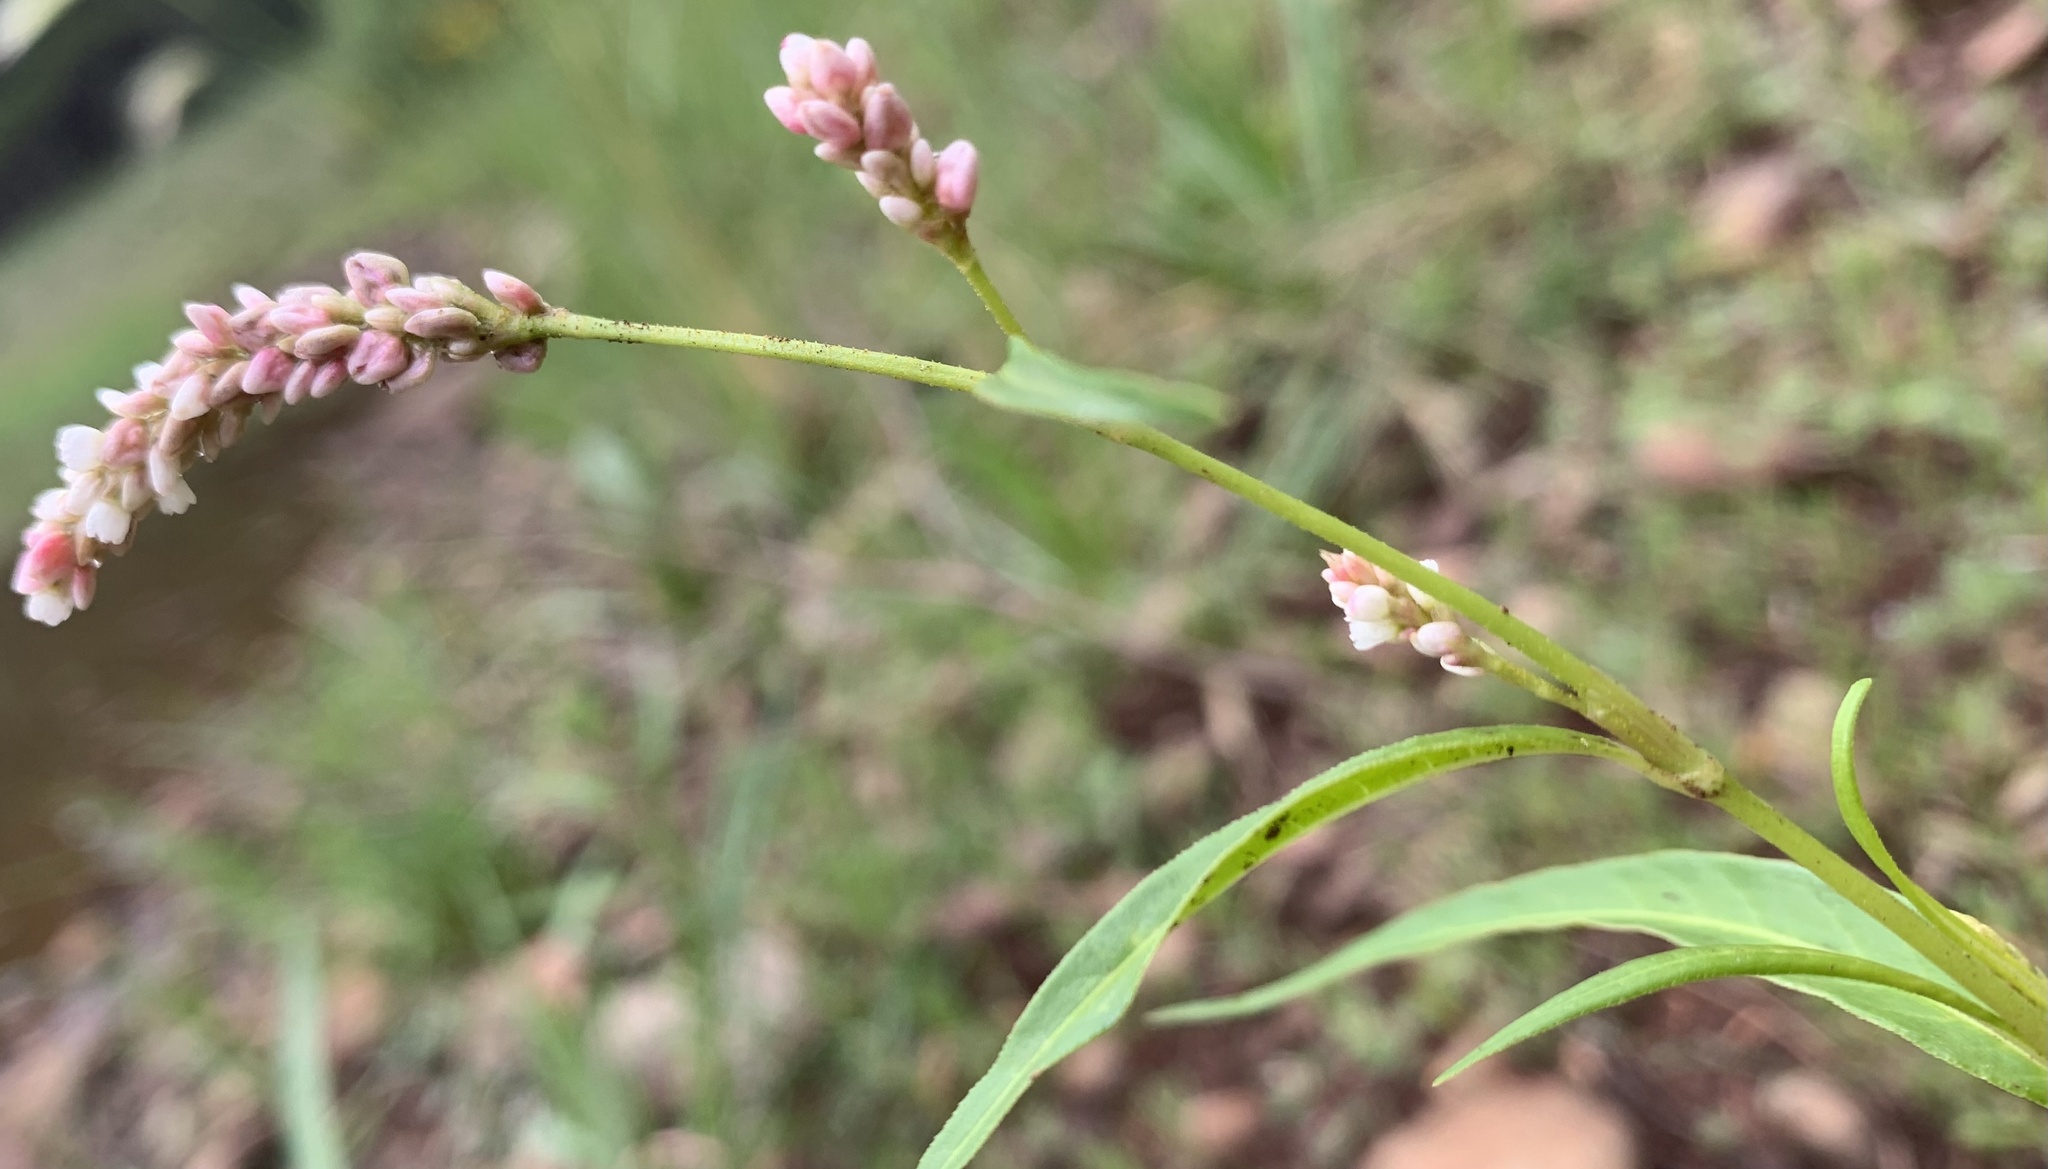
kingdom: Plantae
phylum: Tracheophyta
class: Magnoliopsida
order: Caryophyllales
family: Polygonaceae
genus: Persicaria
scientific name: Persicaria lapathifolia
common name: Curlytop knotweed
